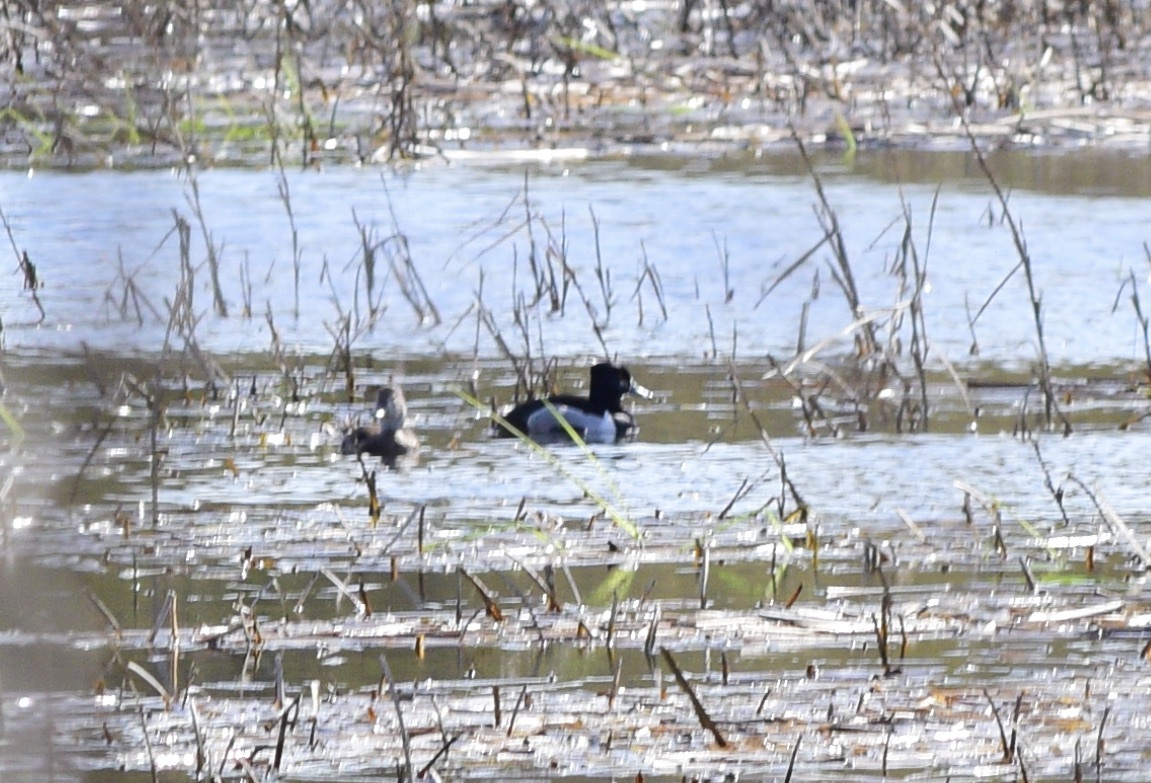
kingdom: Animalia
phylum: Chordata
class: Aves
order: Anseriformes
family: Anatidae
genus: Aythya
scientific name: Aythya collaris
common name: Ring-necked duck
